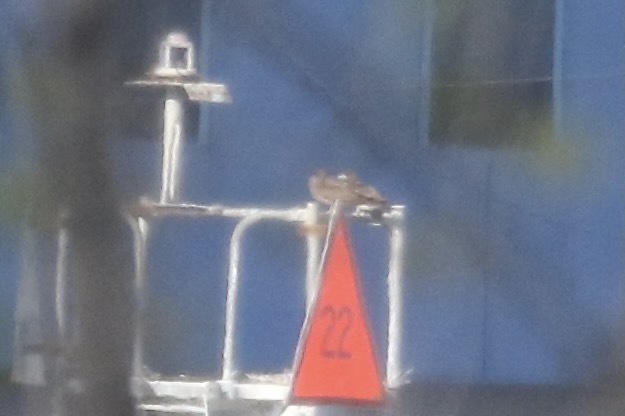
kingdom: Animalia
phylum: Chordata
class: Aves
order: Suliformes
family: Sulidae
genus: Sula
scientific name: Sula leucogaster
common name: Brown booby
